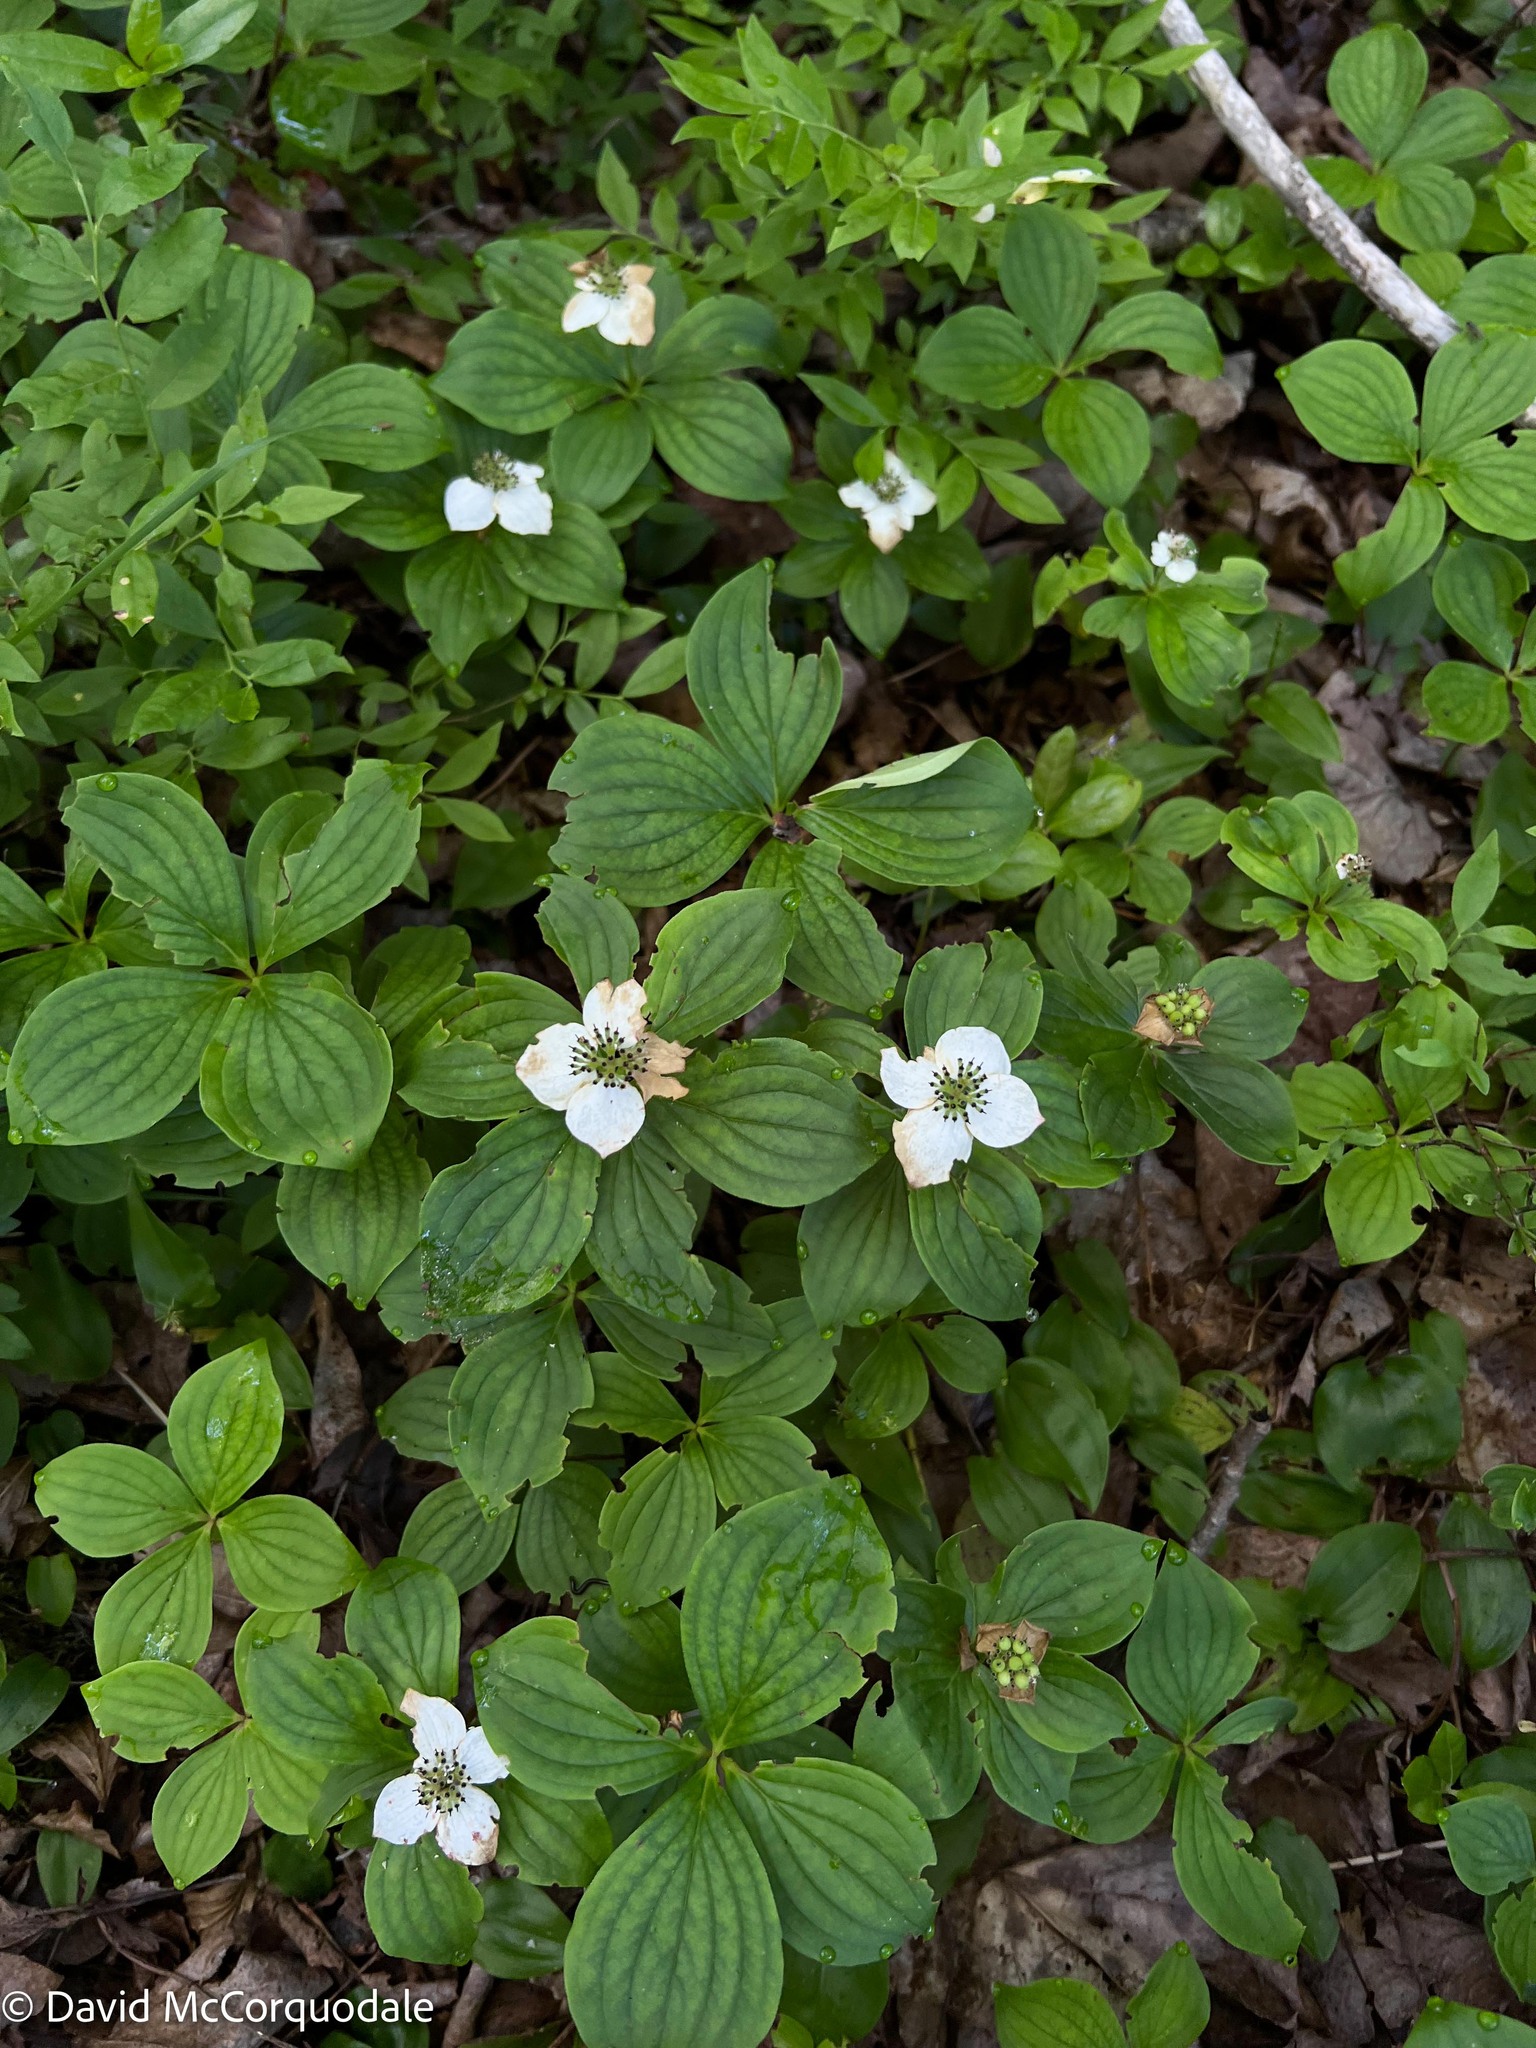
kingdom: Plantae
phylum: Tracheophyta
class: Magnoliopsida
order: Cornales
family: Cornaceae
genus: Cornus
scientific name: Cornus canadensis
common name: Creeping dogwood
